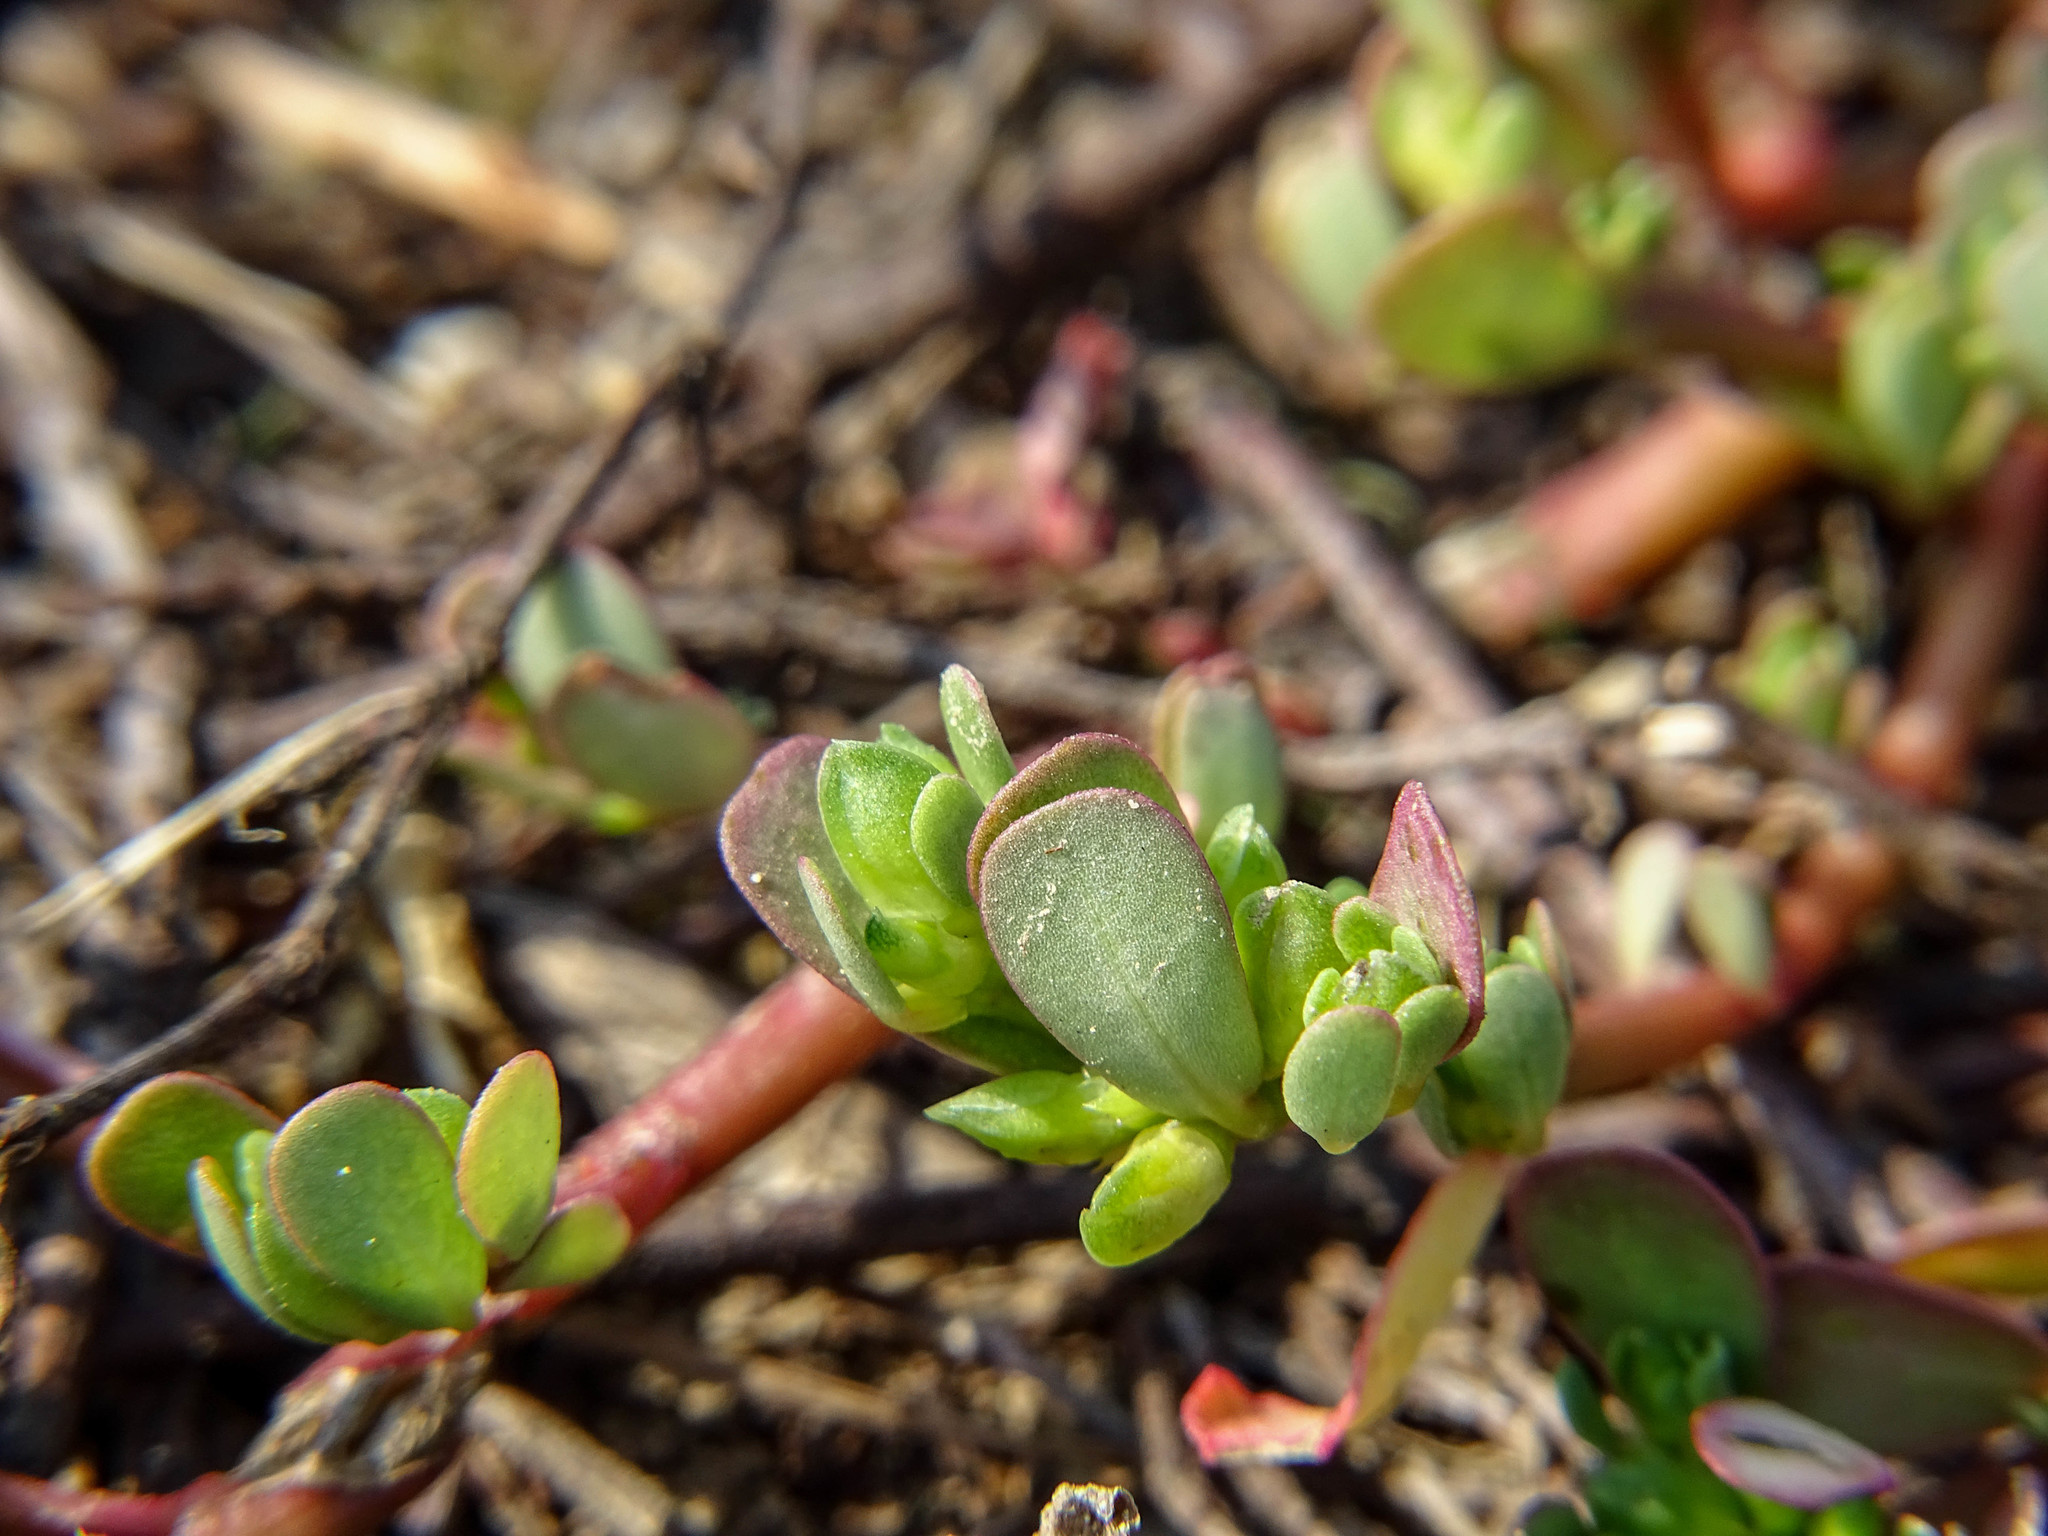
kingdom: Plantae
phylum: Tracheophyta
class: Magnoliopsida
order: Caryophyllales
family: Portulacaceae
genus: Portulaca
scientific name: Portulaca oleracea
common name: Common purslane
